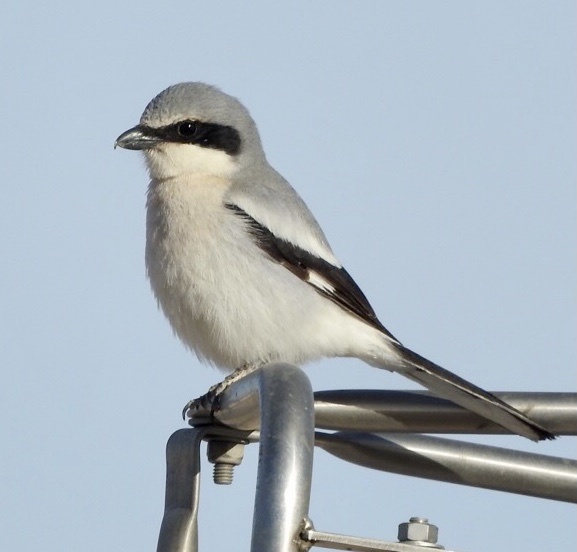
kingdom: Animalia
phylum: Chordata
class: Aves
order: Passeriformes
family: Laniidae
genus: Lanius
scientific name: Lanius ludovicianus
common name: Loggerhead shrike
